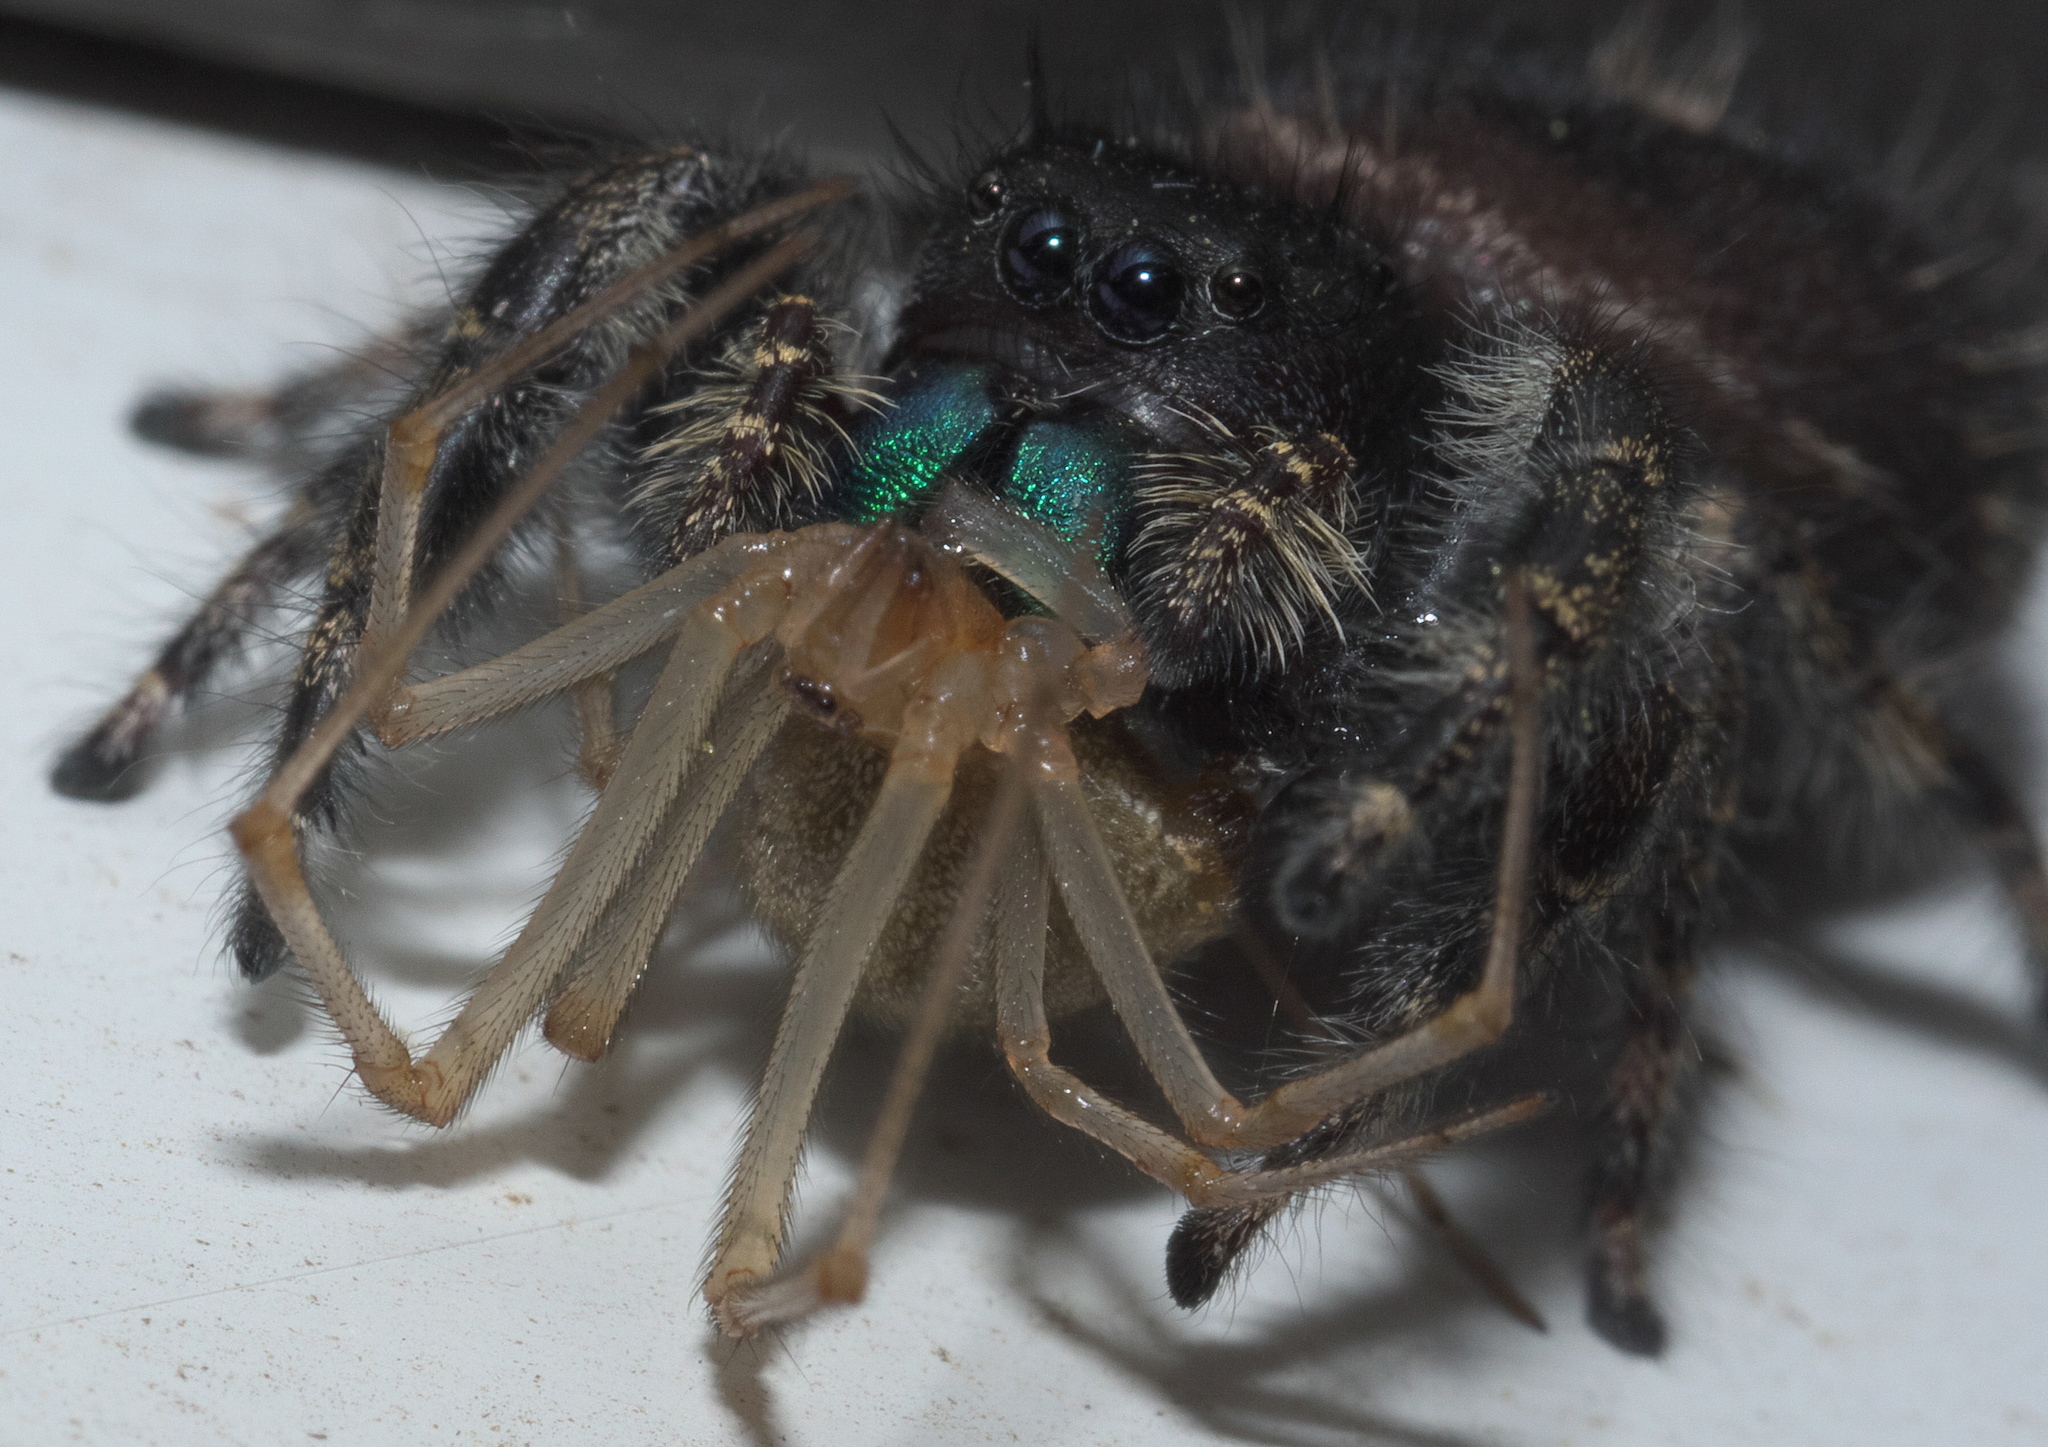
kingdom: Animalia
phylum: Arthropoda
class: Arachnida
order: Araneae
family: Salticidae
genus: Phidippus
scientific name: Phidippus audax
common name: Bold jumper
